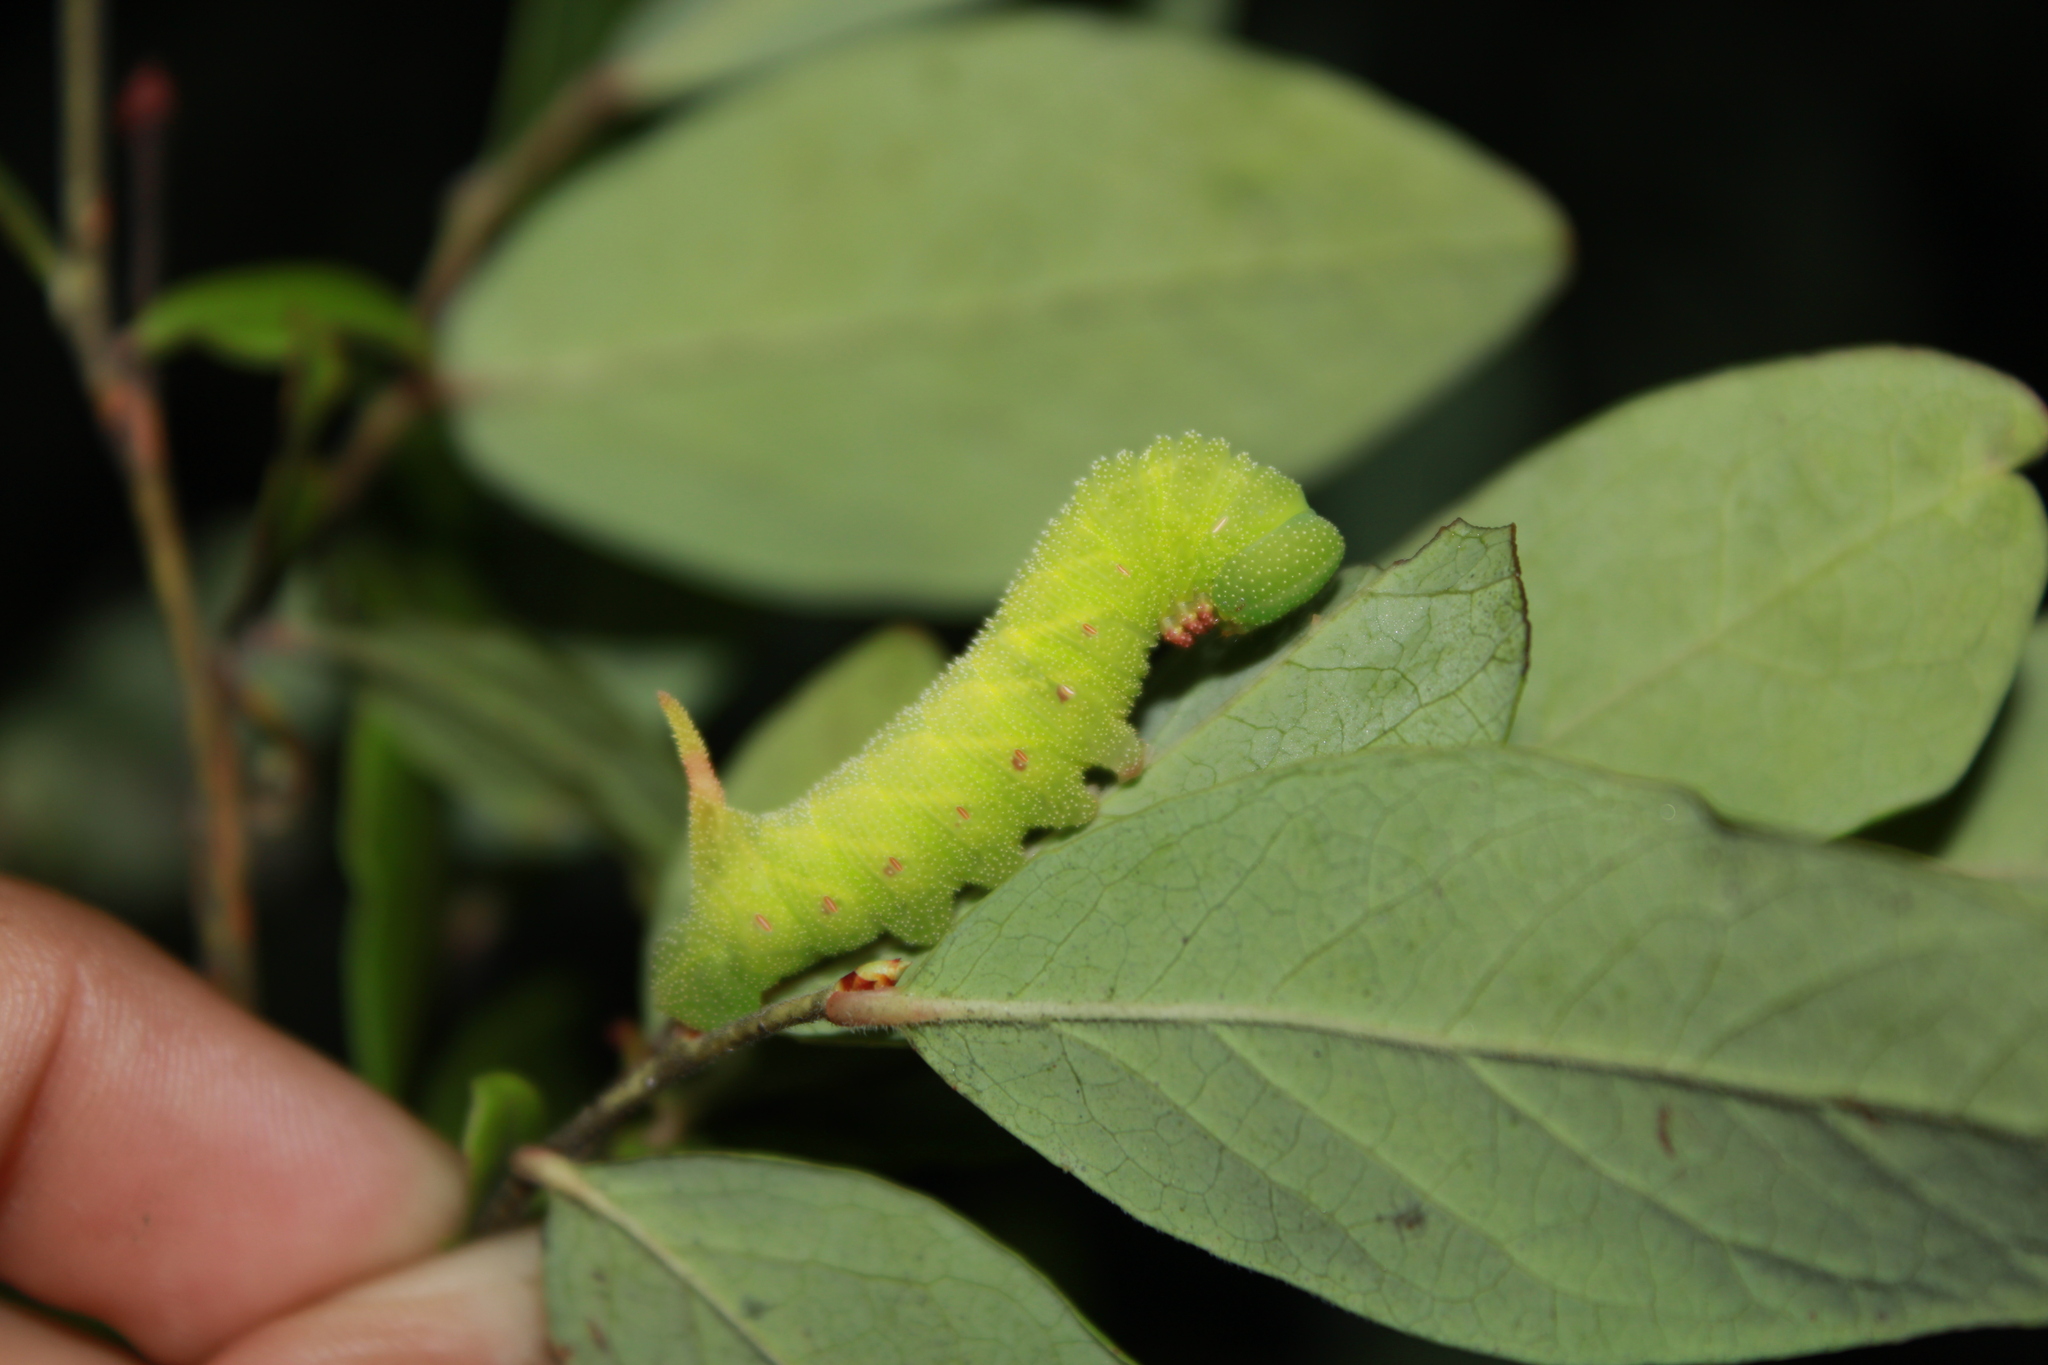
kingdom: Animalia
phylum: Arthropoda
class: Insecta
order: Lepidoptera
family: Sphingidae
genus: Paonias
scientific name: Paonias astylus
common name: Huckleberry sphinx
